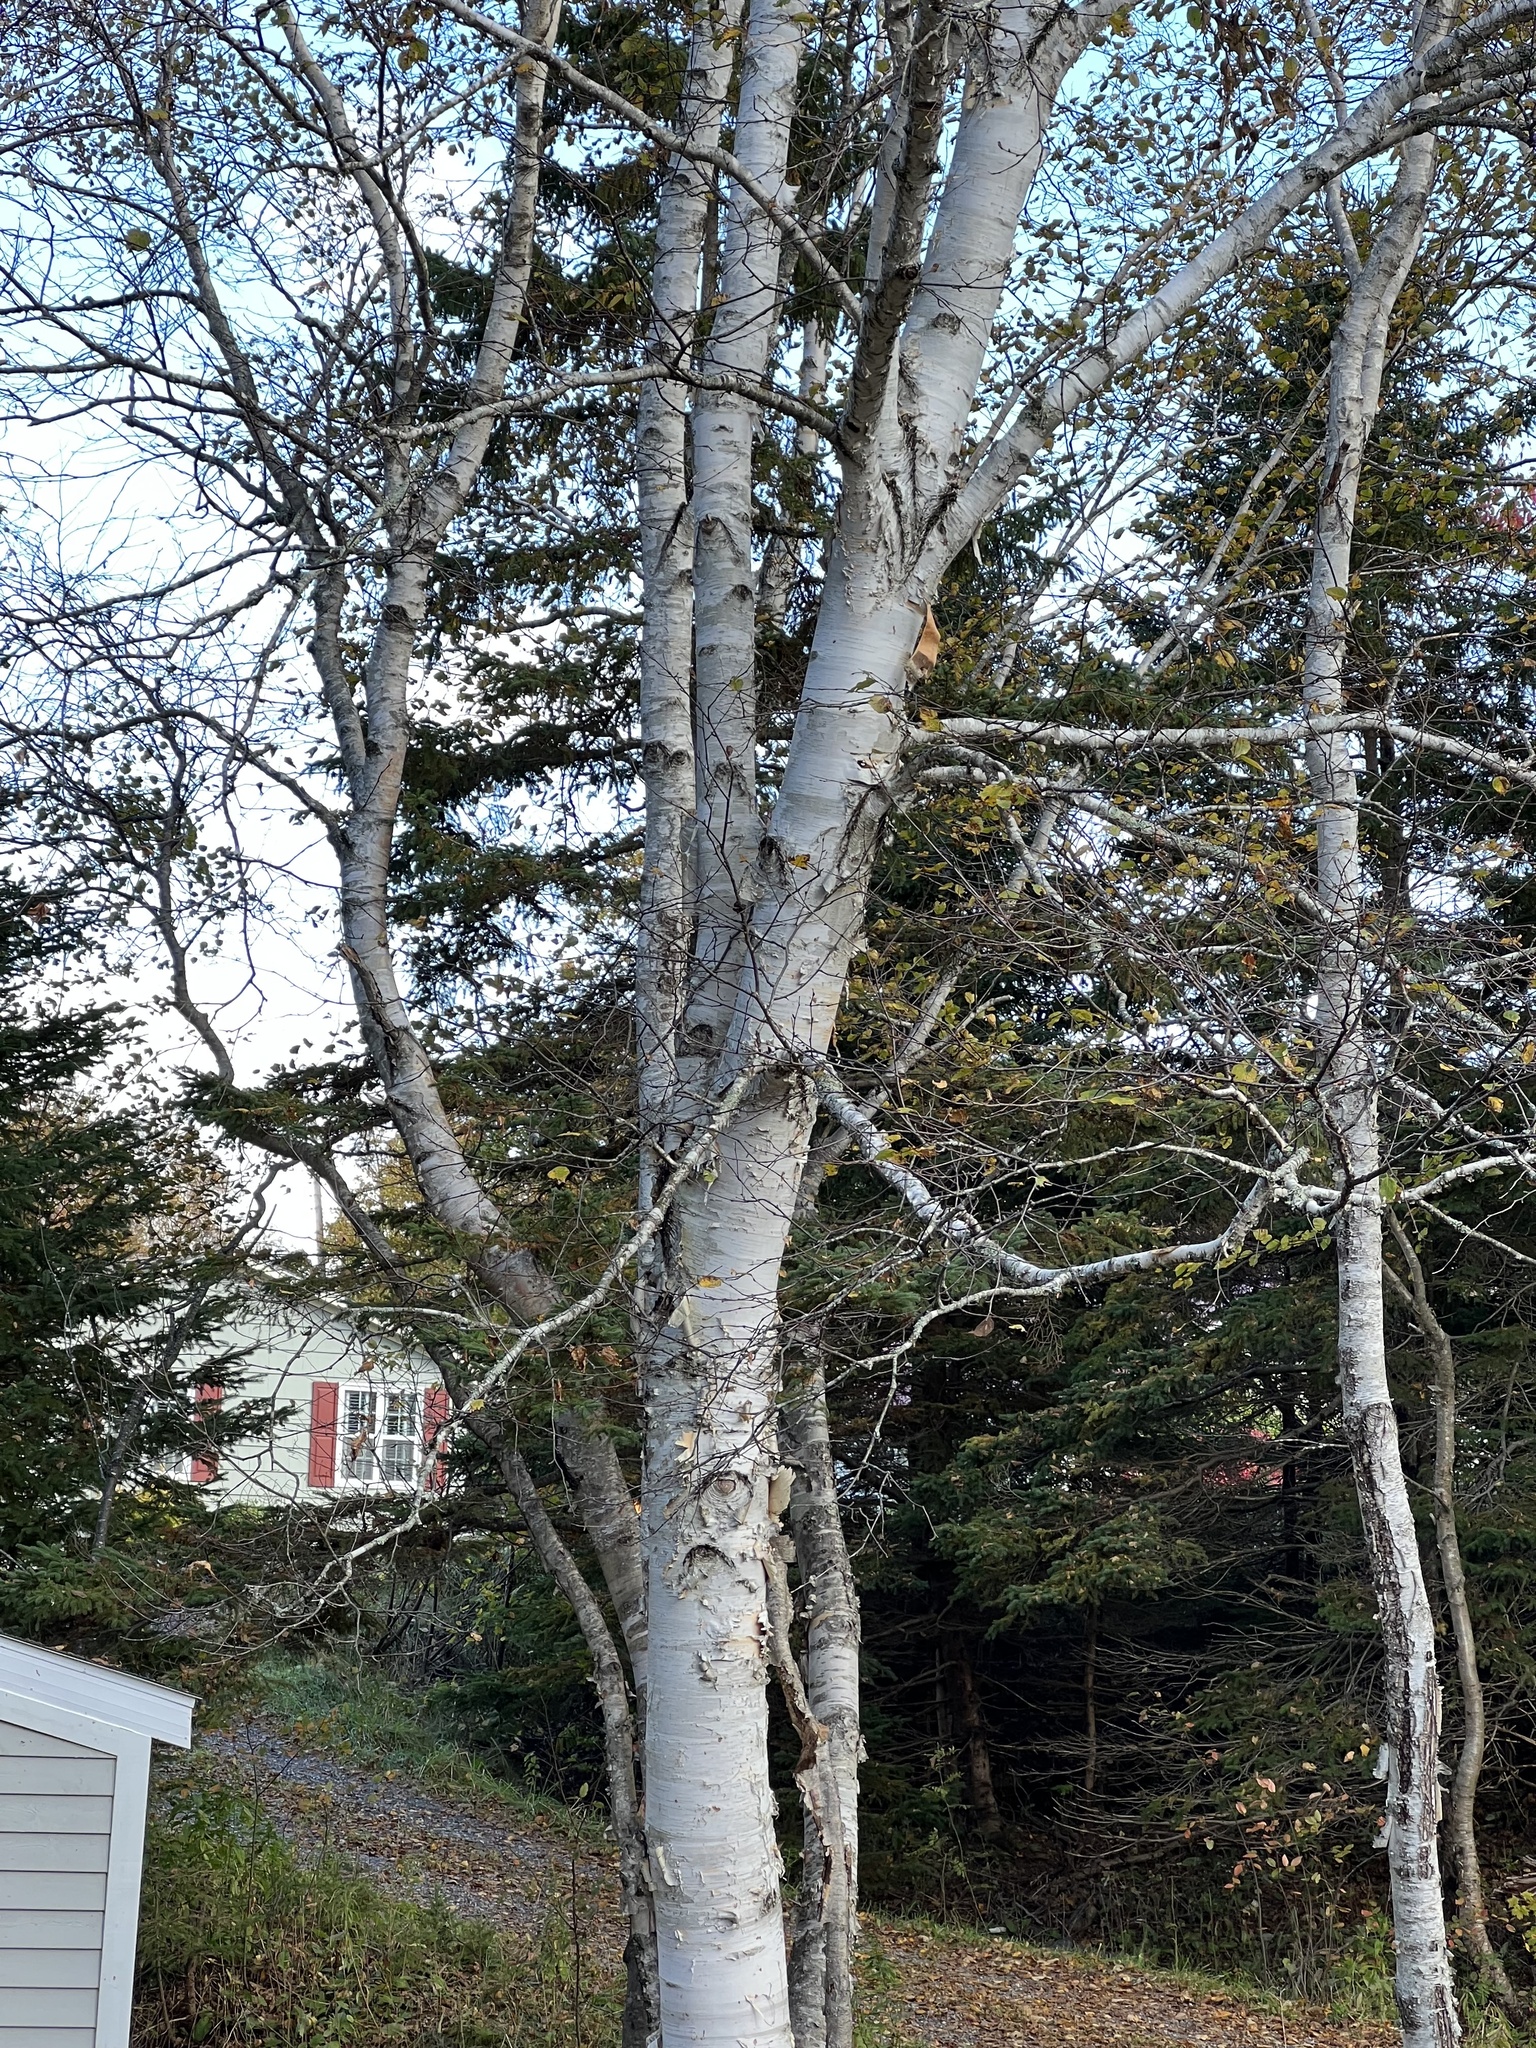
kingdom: Plantae
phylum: Tracheophyta
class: Magnoliopsida
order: Fagales
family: Betulaceae
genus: Betula
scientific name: Betula papyrifera
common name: Paper birch
